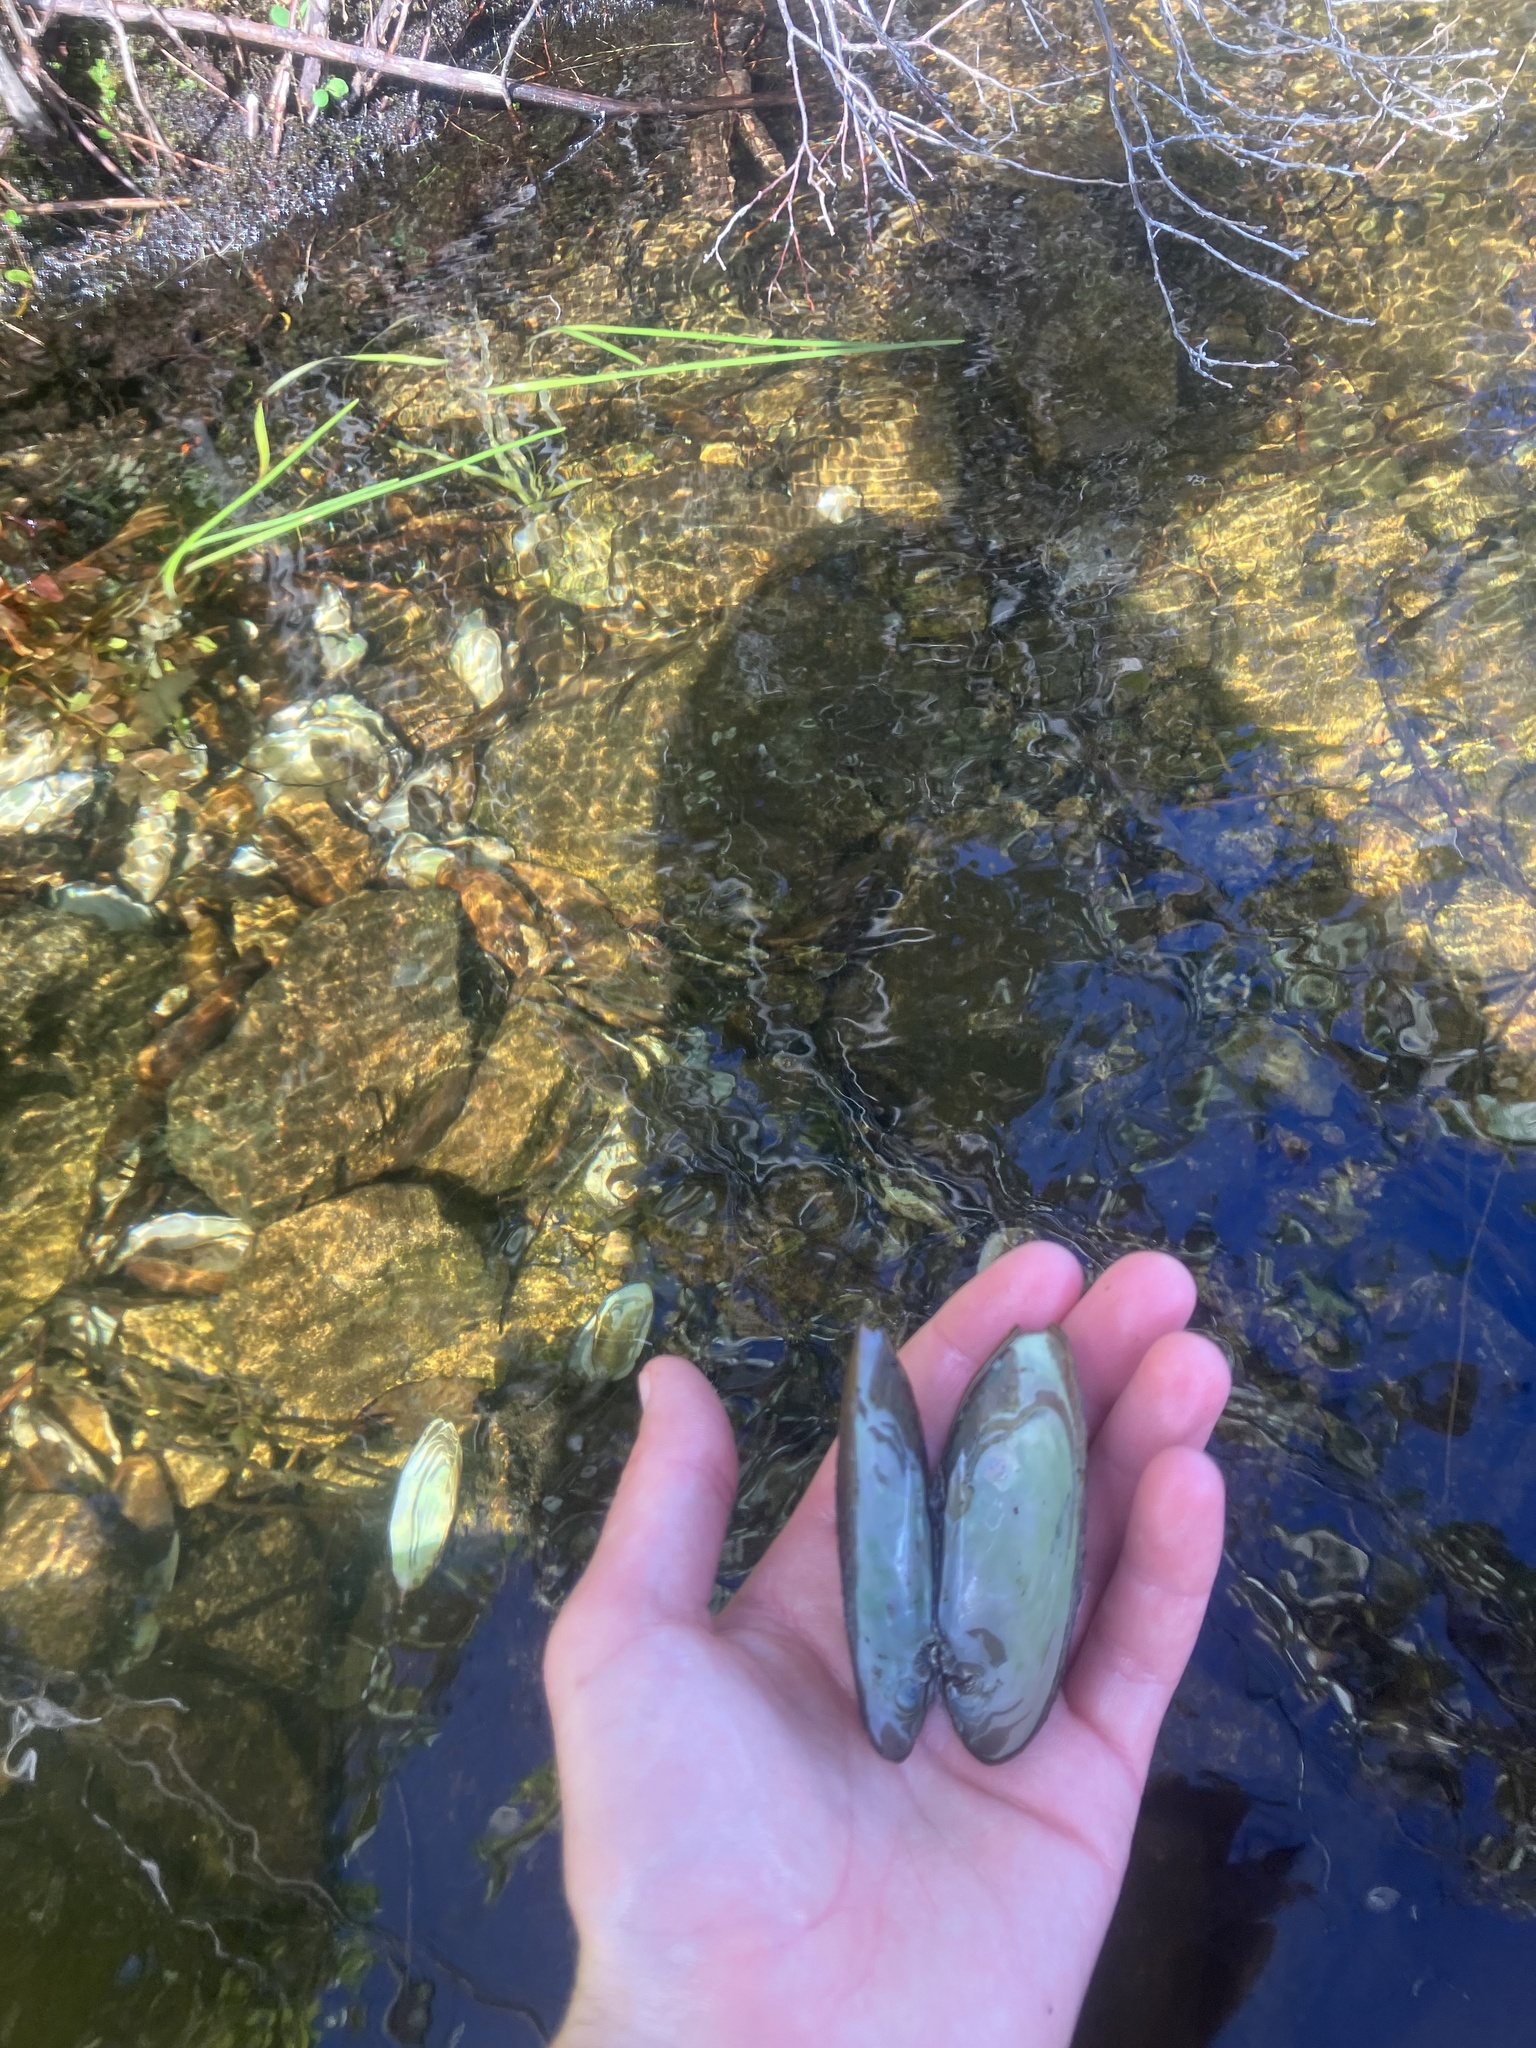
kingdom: Animalia
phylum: Mollusca
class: Bivalvia
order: Unionida
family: Unionidae
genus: Elliptio
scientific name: Elliptio complanata
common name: Eastern elliptio
